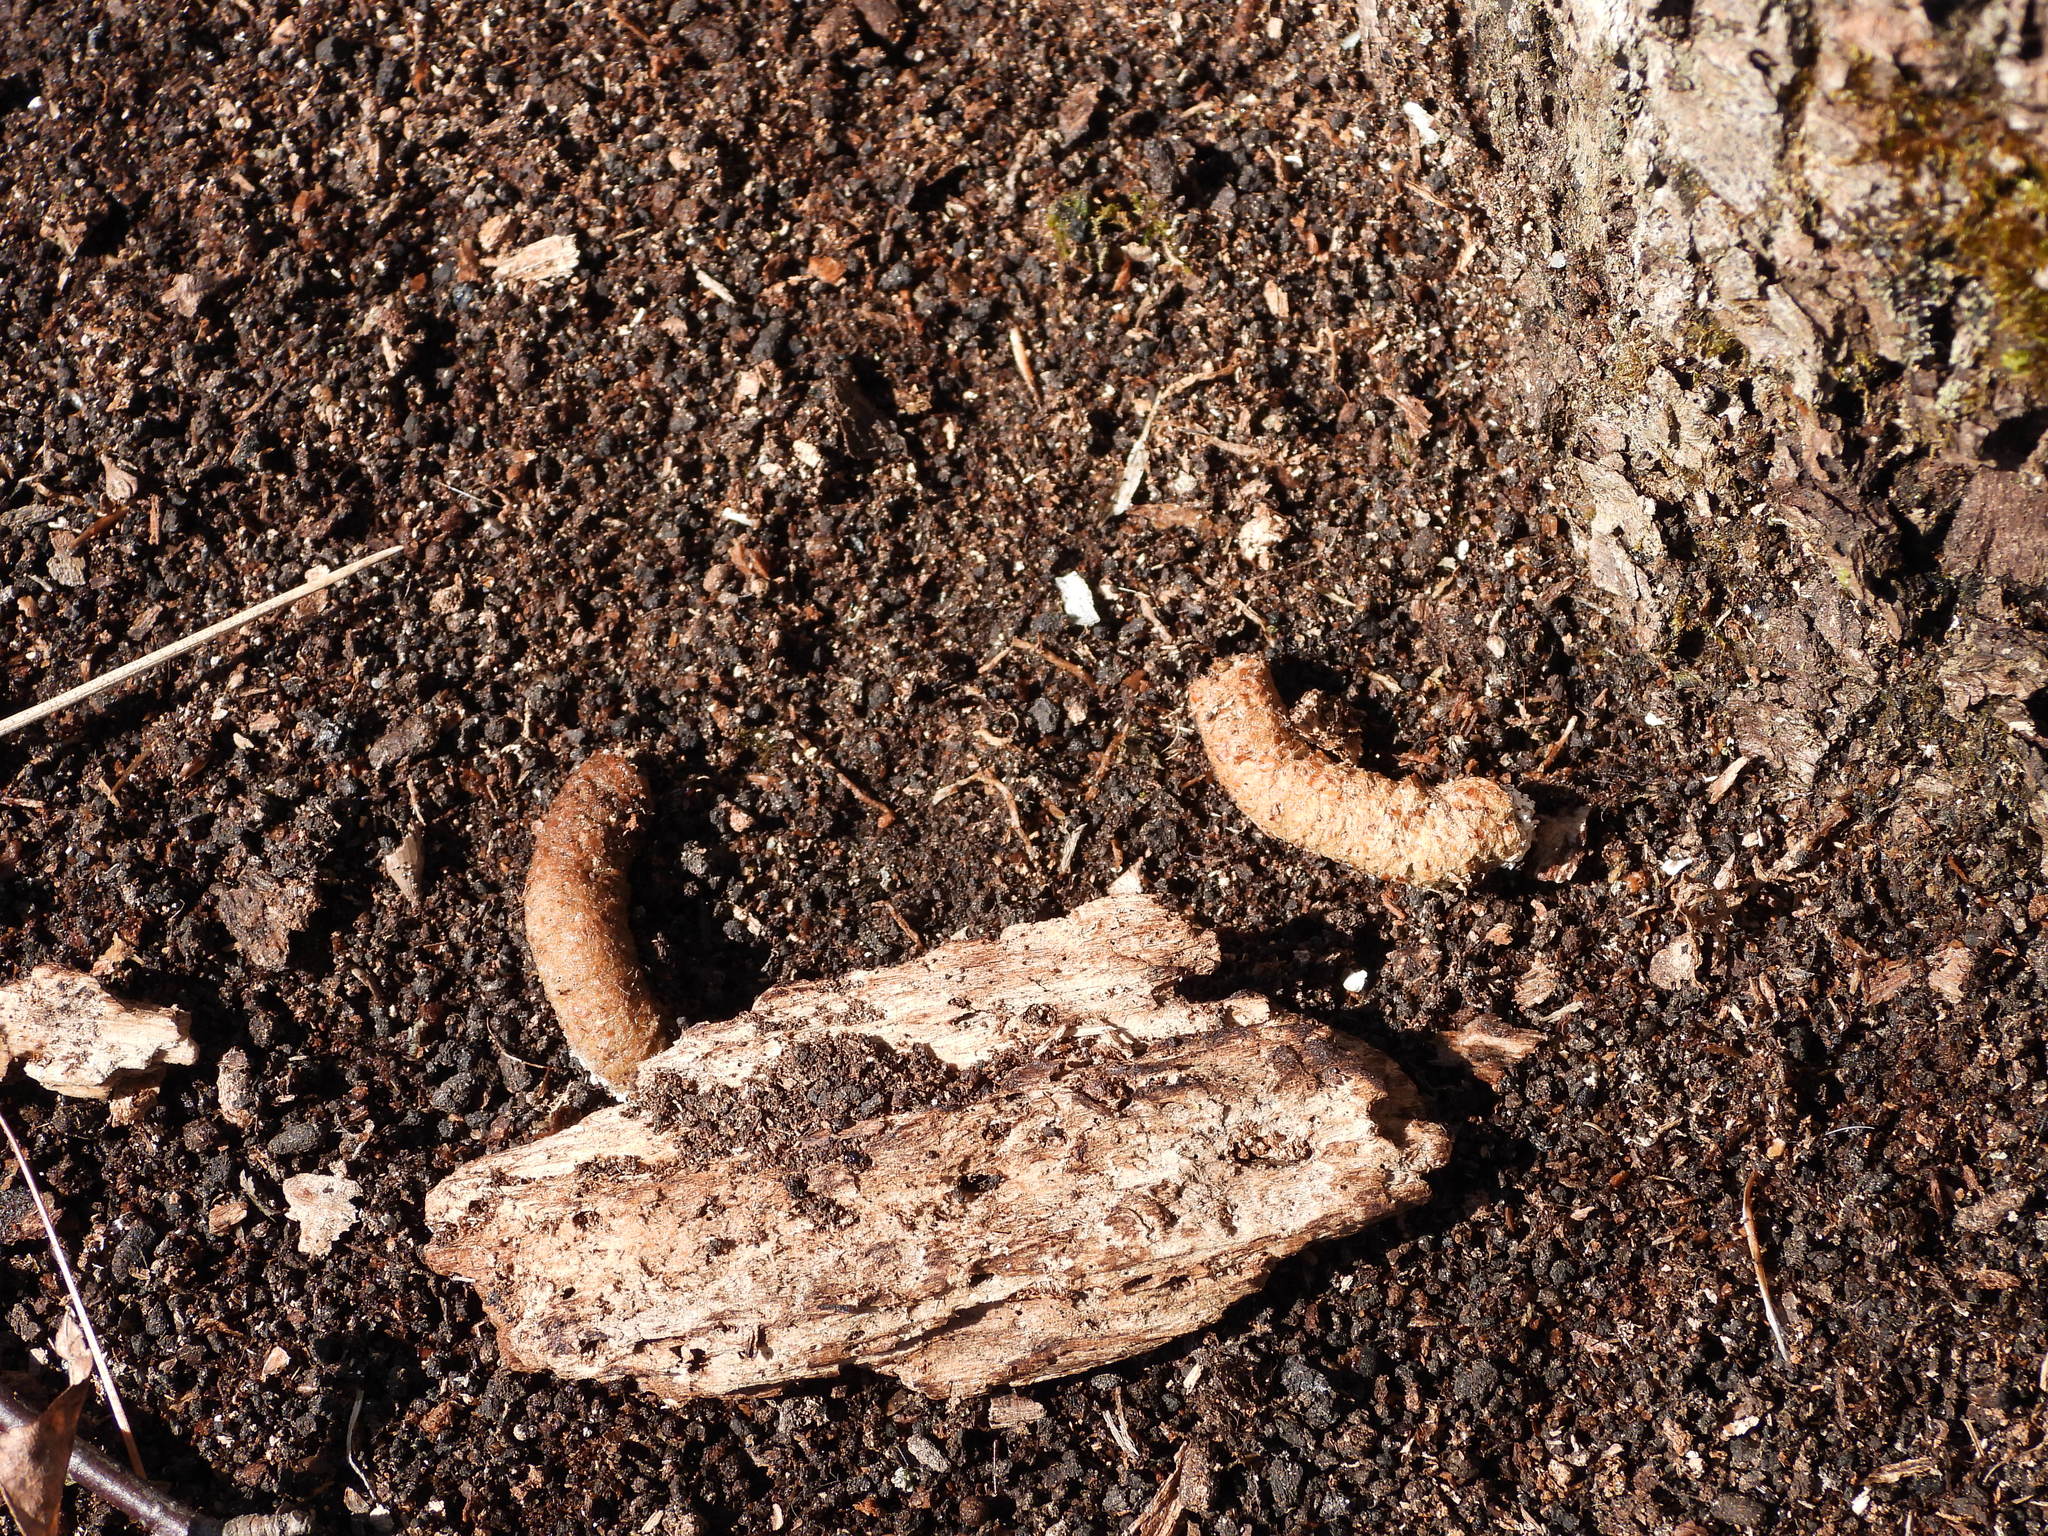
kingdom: Animalia
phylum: Chordata
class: Aves
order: Galliformes
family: Phasianidae
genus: Bonasa
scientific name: Bonasa umbellus
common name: Ruffed grouse
